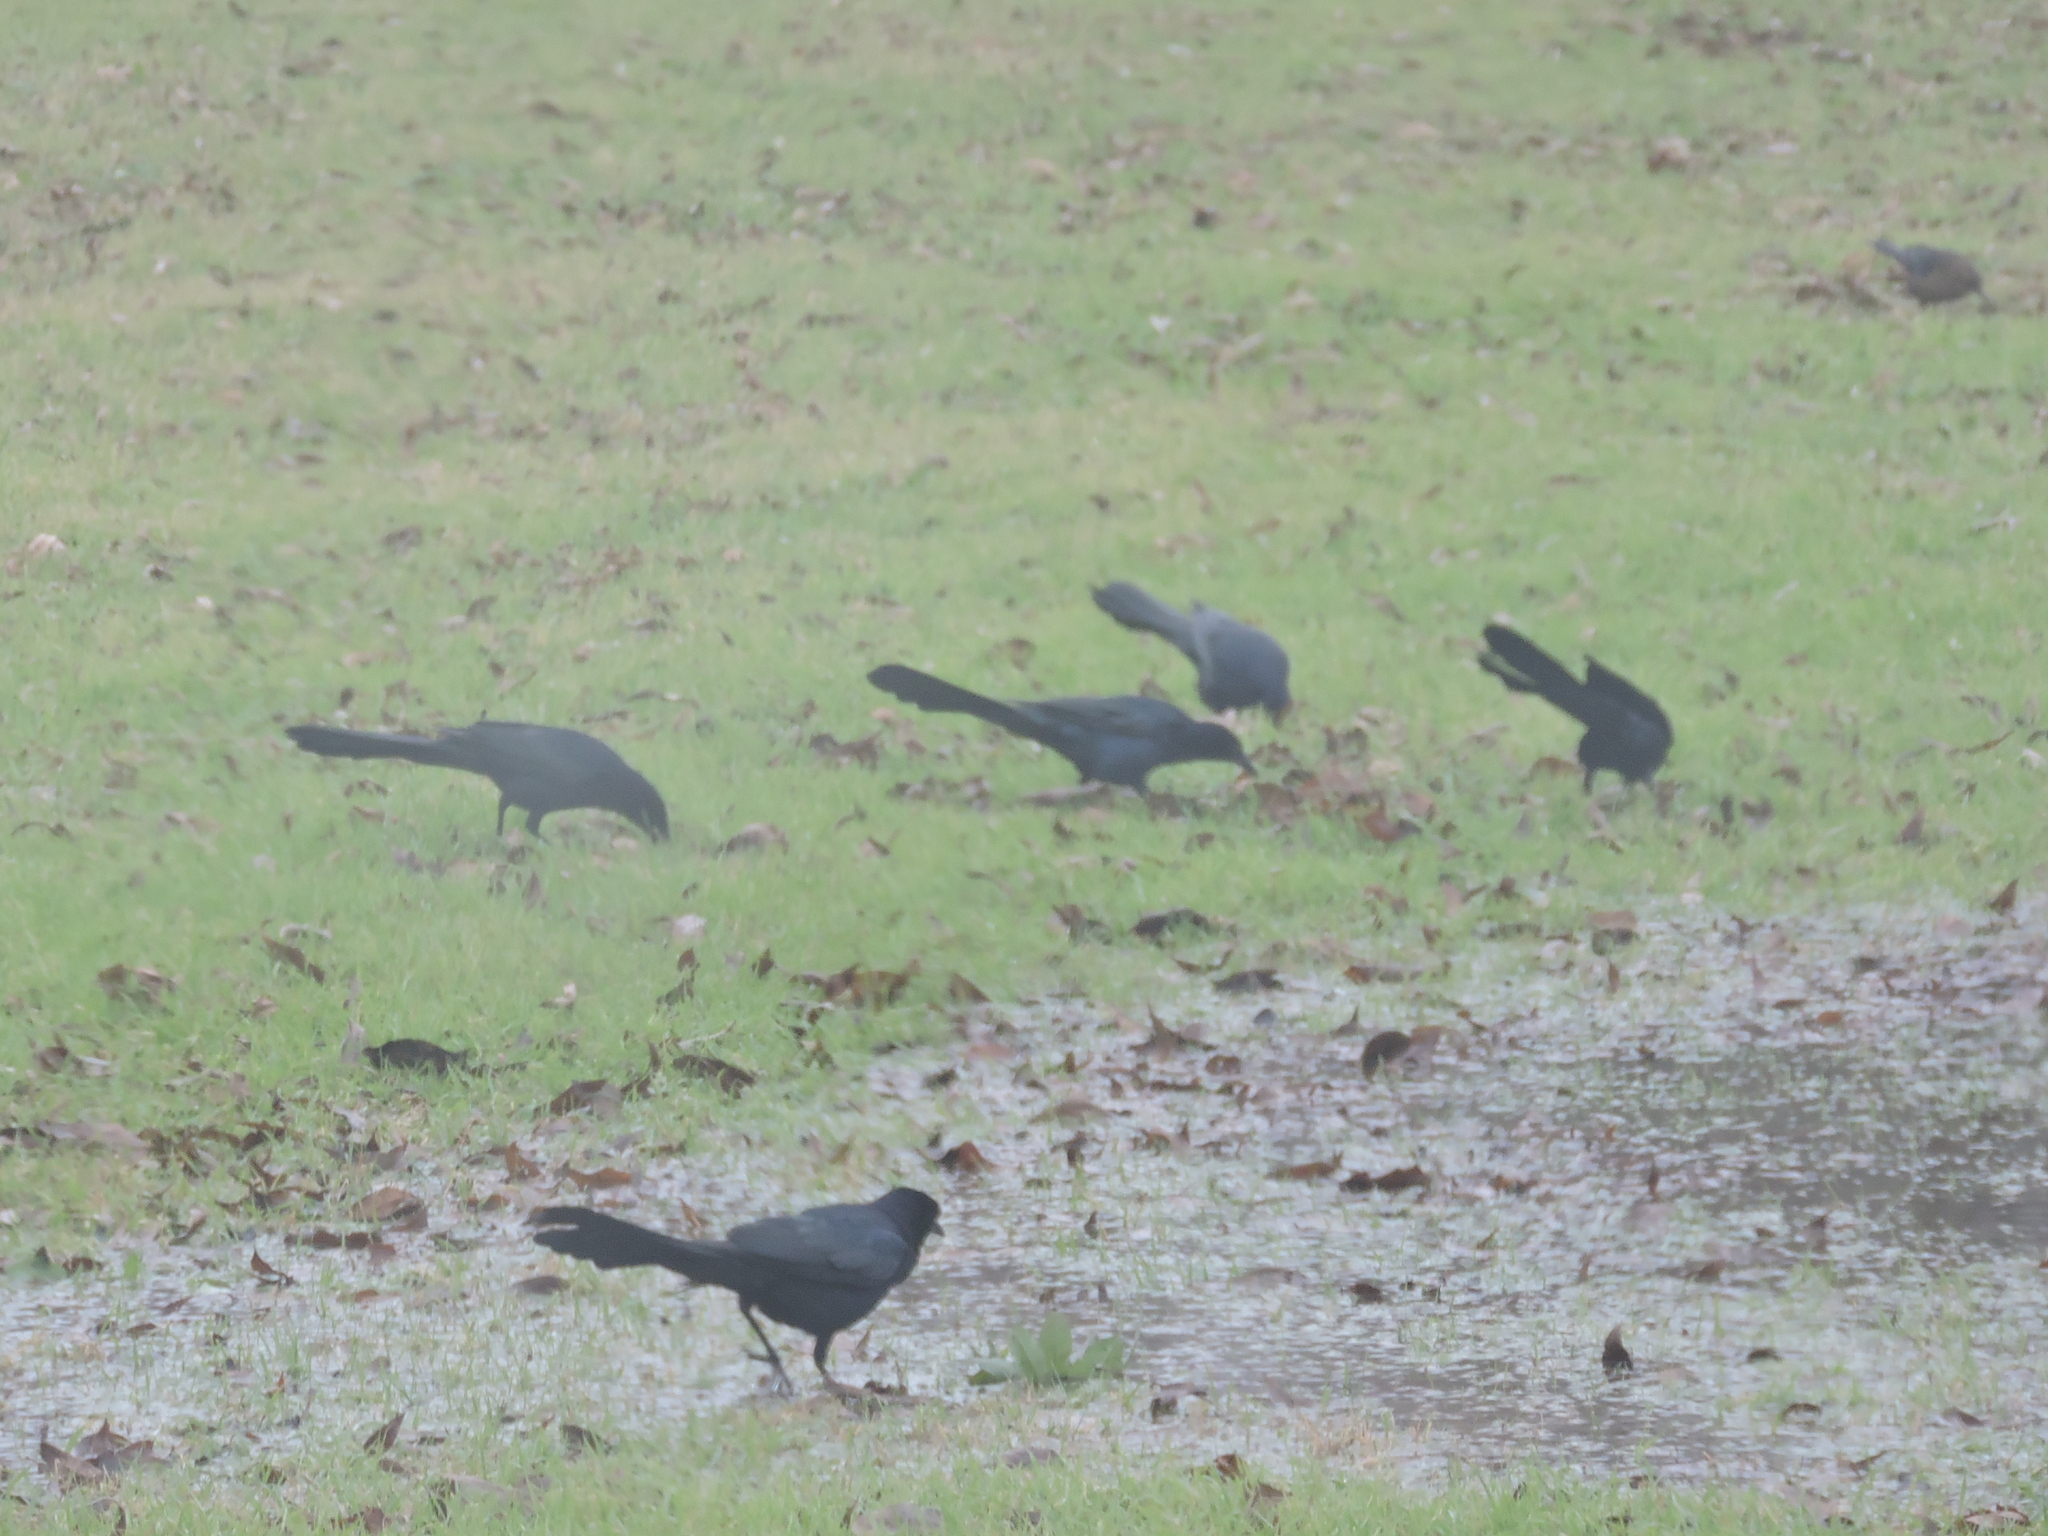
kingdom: Animalia
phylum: Chordata
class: Aves
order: Passeriformes
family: Icteridae
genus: Quiscalus
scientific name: Quiscalus mexicanus
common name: Great-tailed grackle
